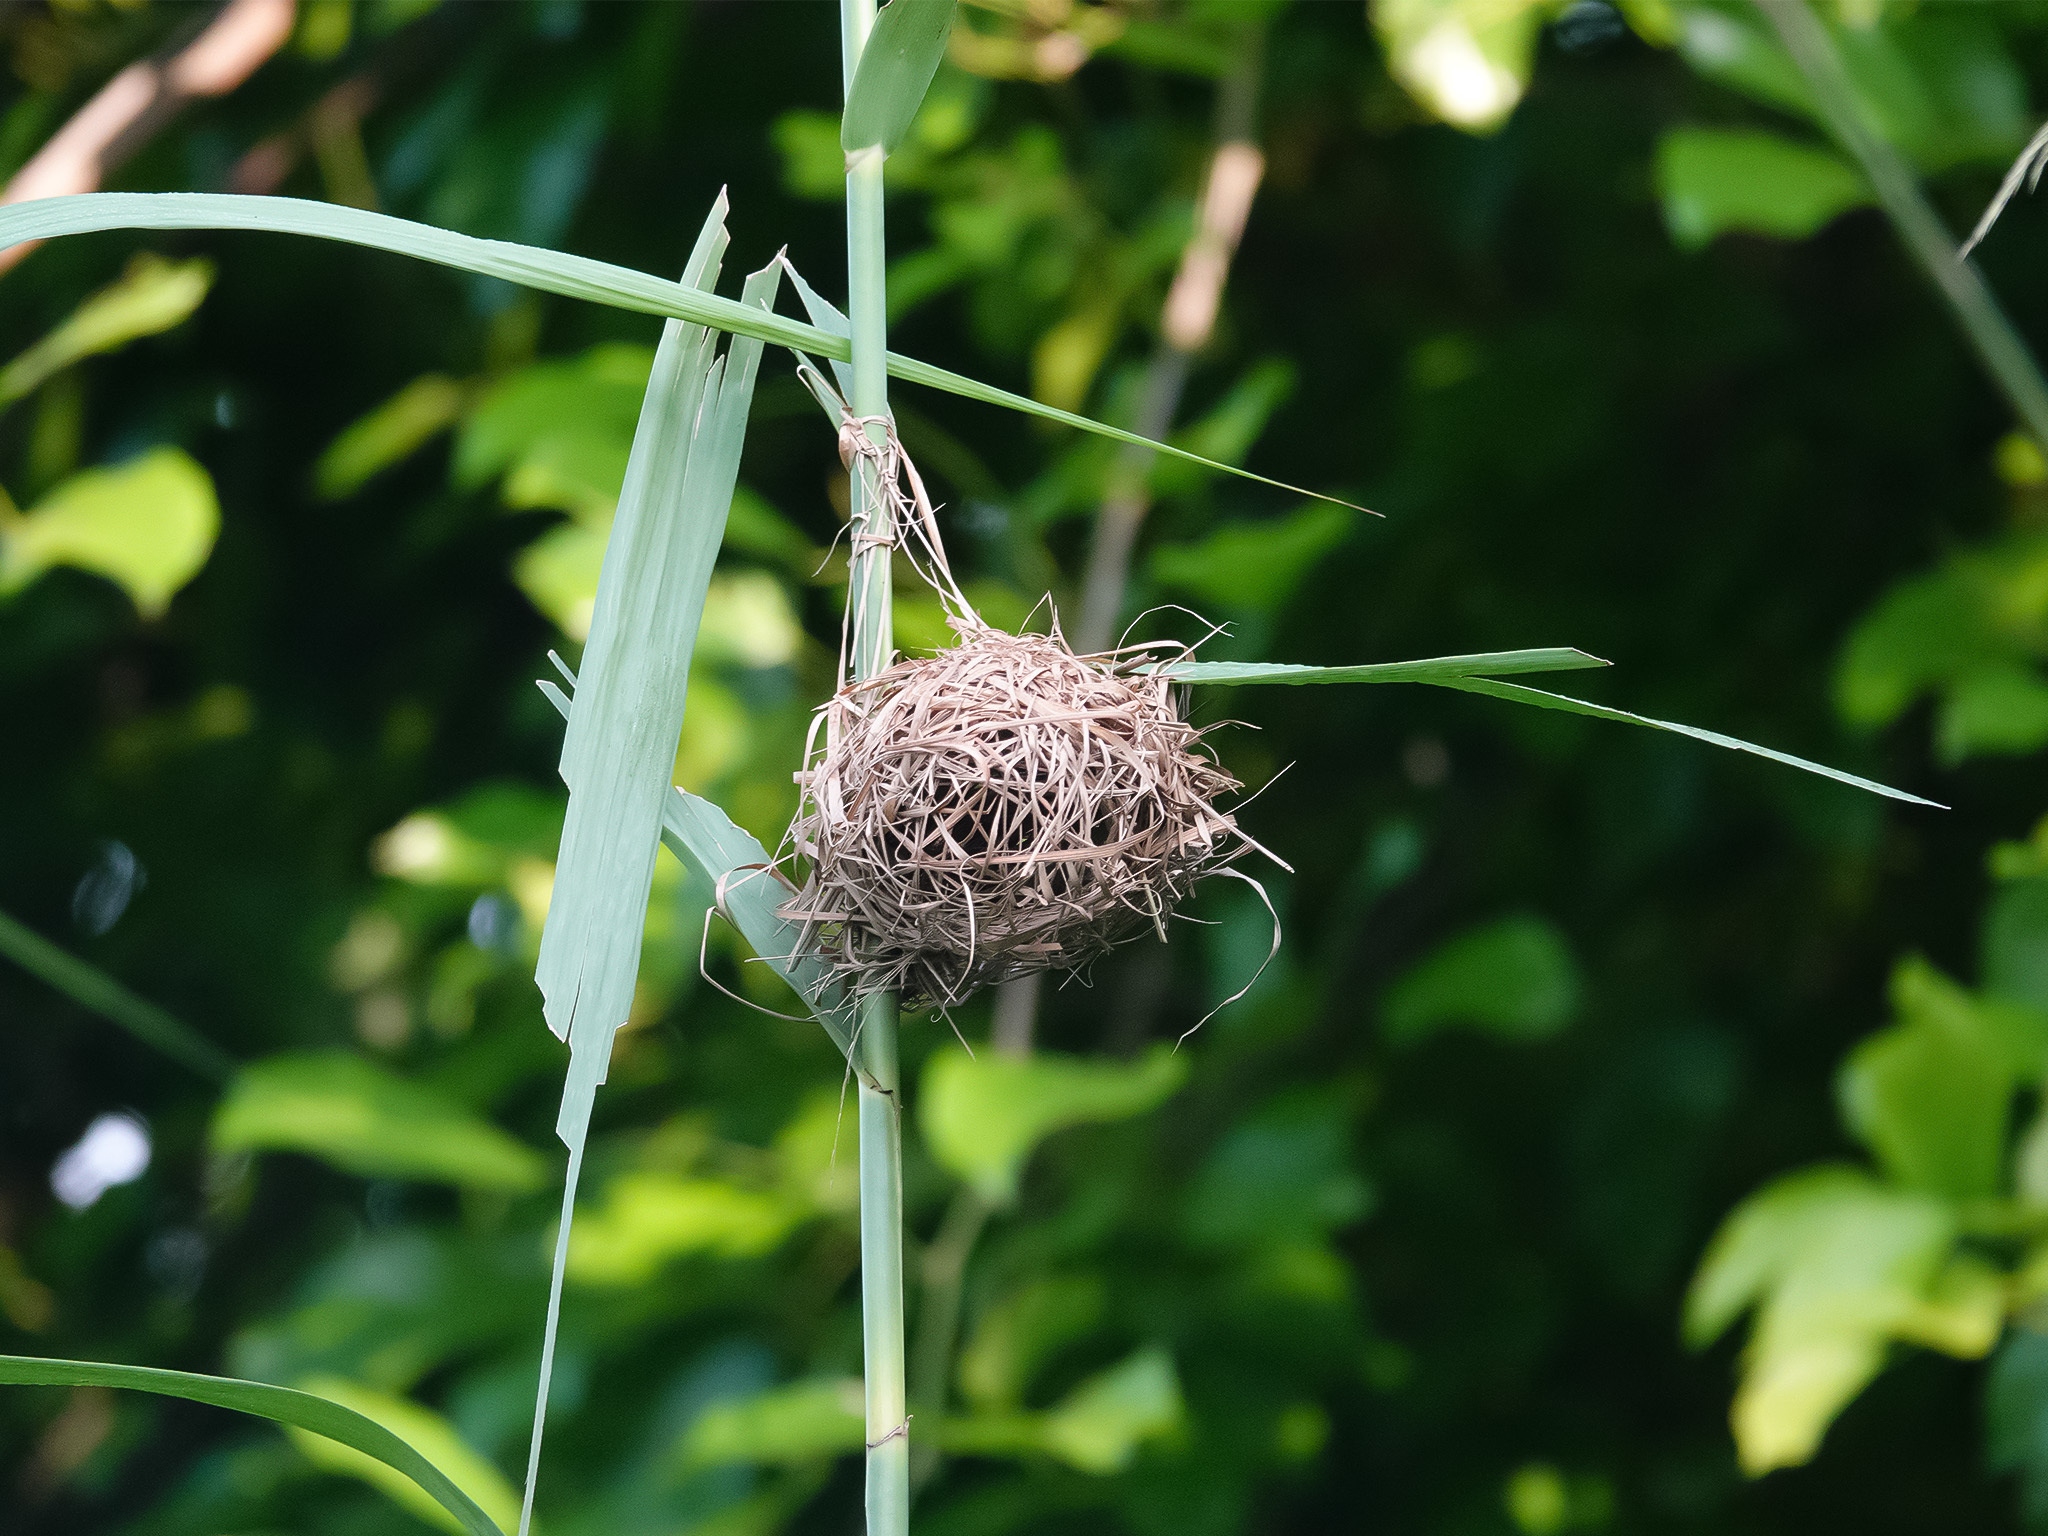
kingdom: Animalia
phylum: Chordata
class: Aves
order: Passeriformes
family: Ploceidae
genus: Ploceus
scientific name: Ploceus jacksoni
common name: Golden-backed weaver
